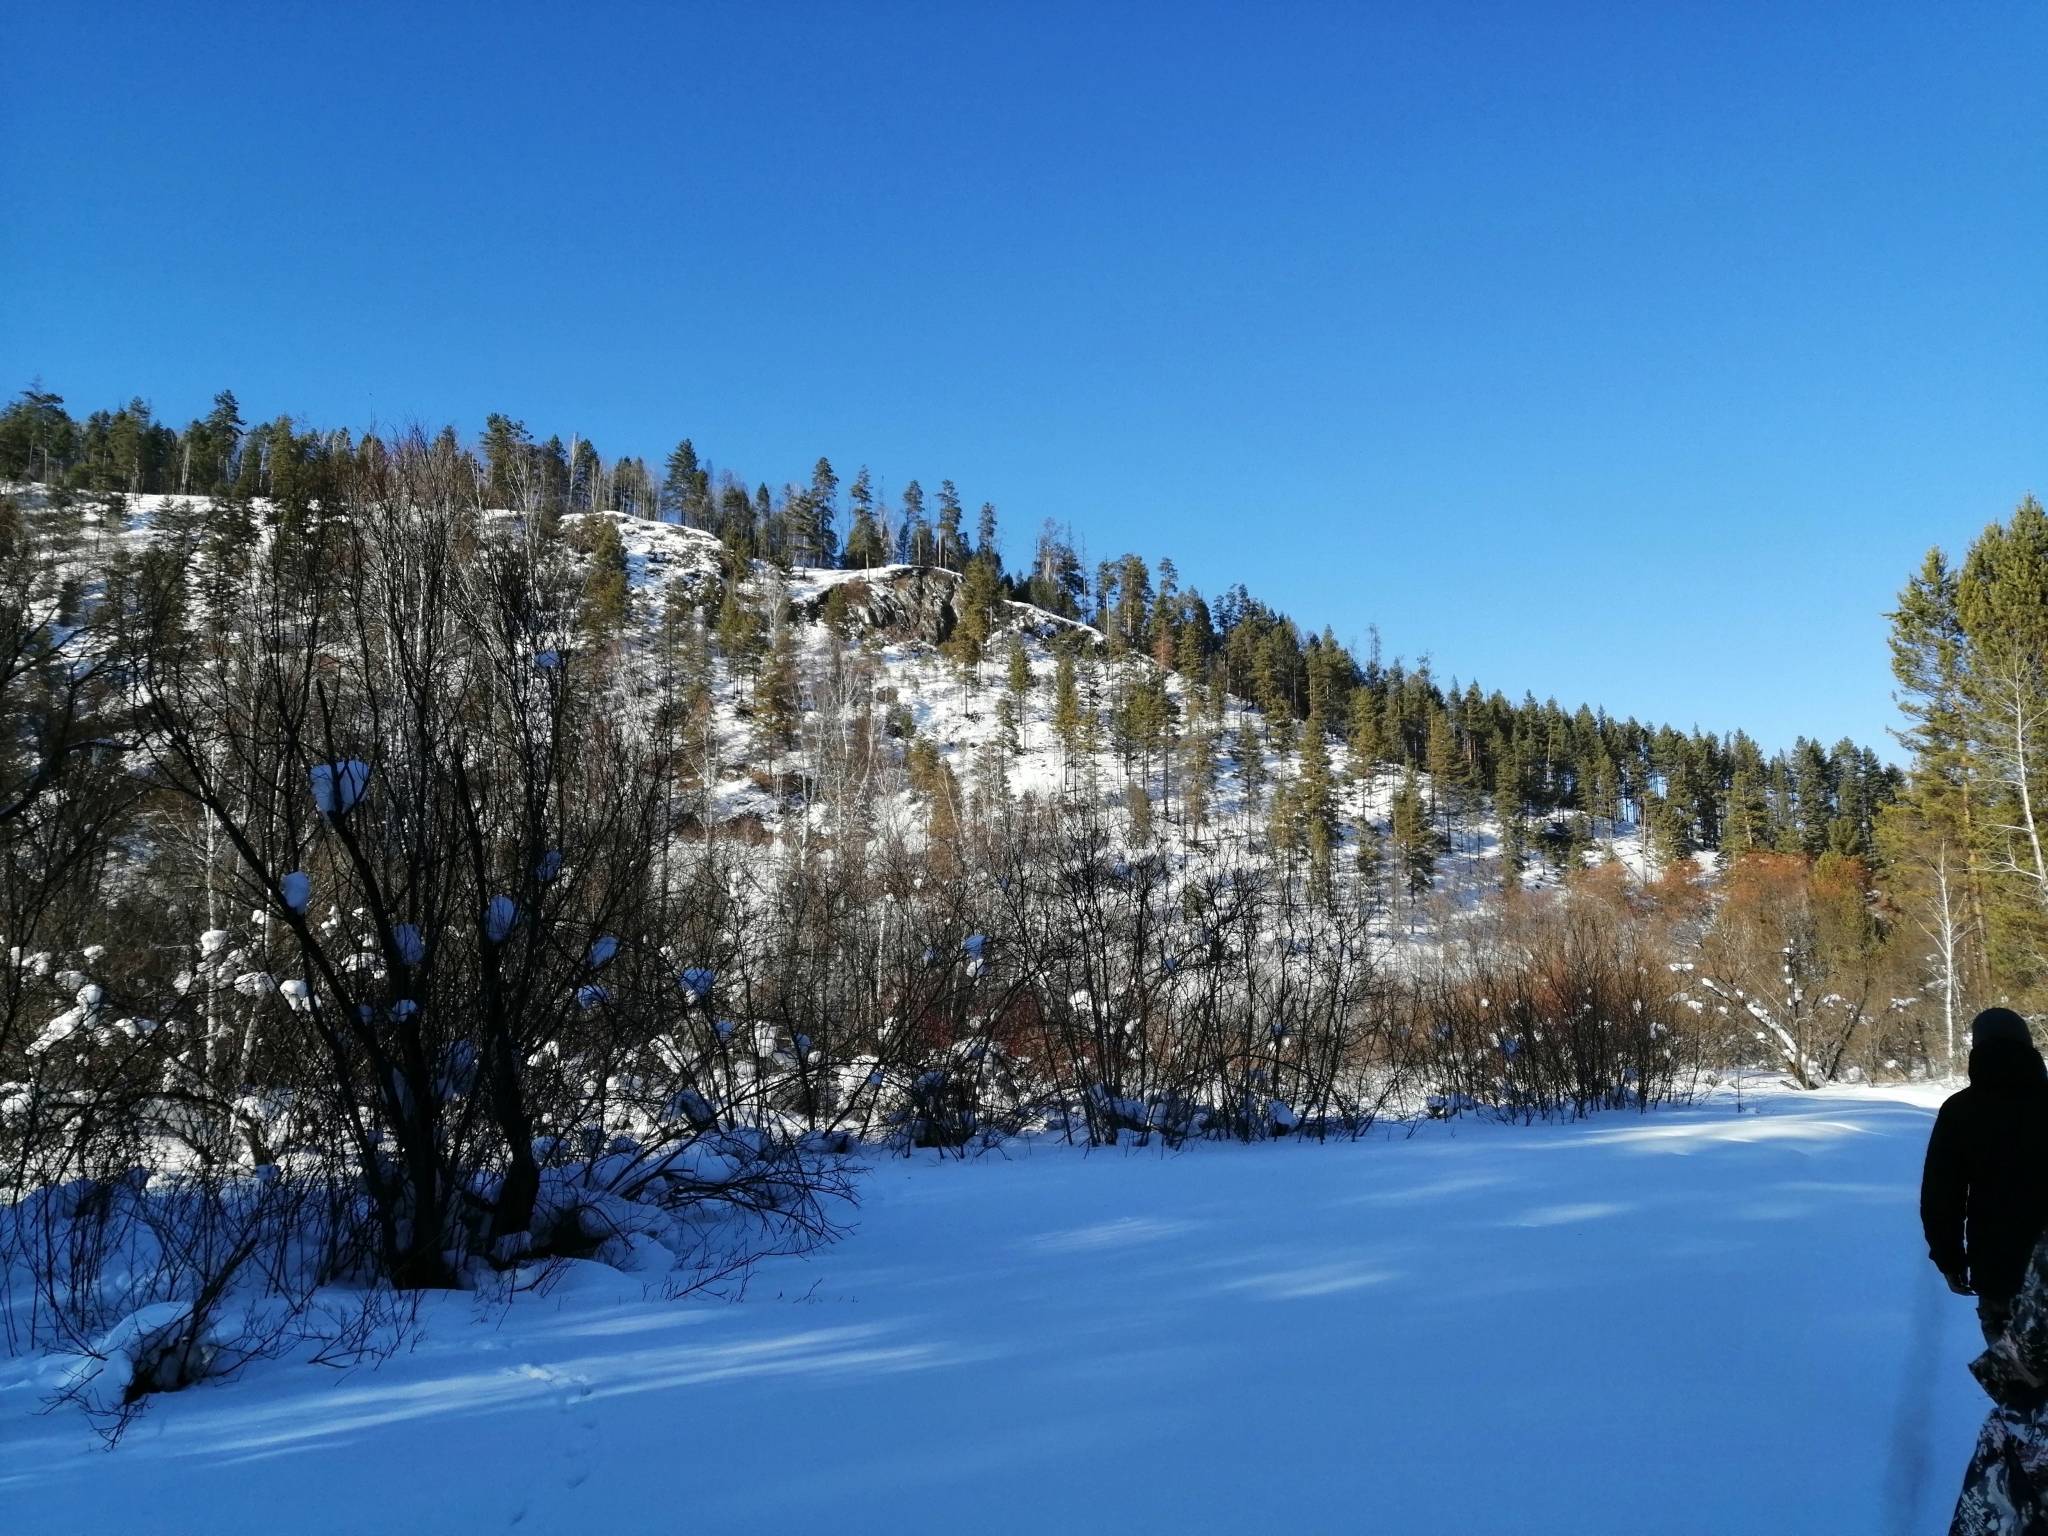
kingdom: Plantae
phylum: Tracheophyta
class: Pinopsida
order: Pinales
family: Pinaceae
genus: Pinus
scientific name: Pinus sylvestris
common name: Scots pine
